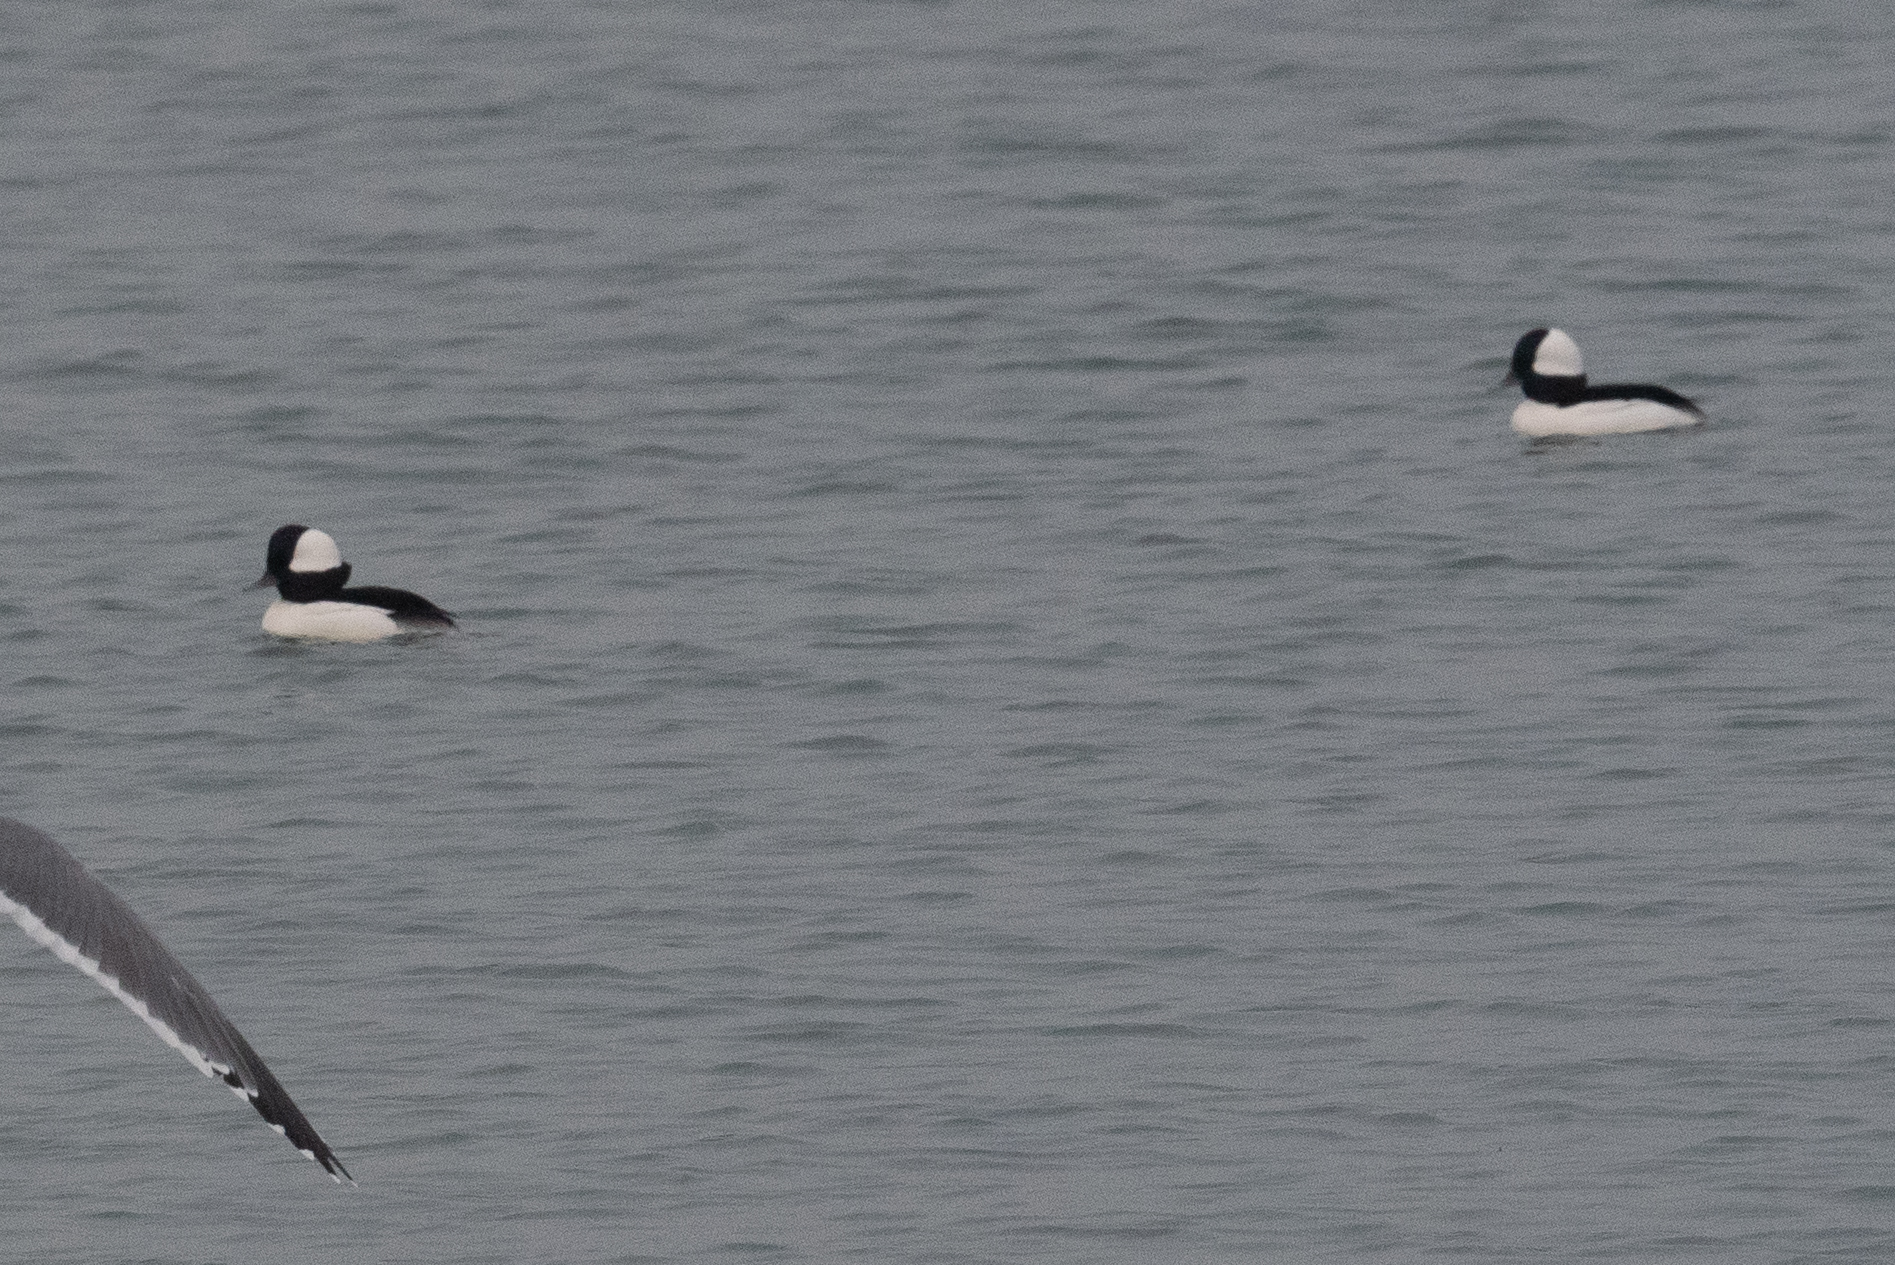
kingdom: Animalia
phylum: Chordata
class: Aves
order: Anseriformes
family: Anatidae
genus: Bucephala
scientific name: Bucephala albeola
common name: Bufflehead
